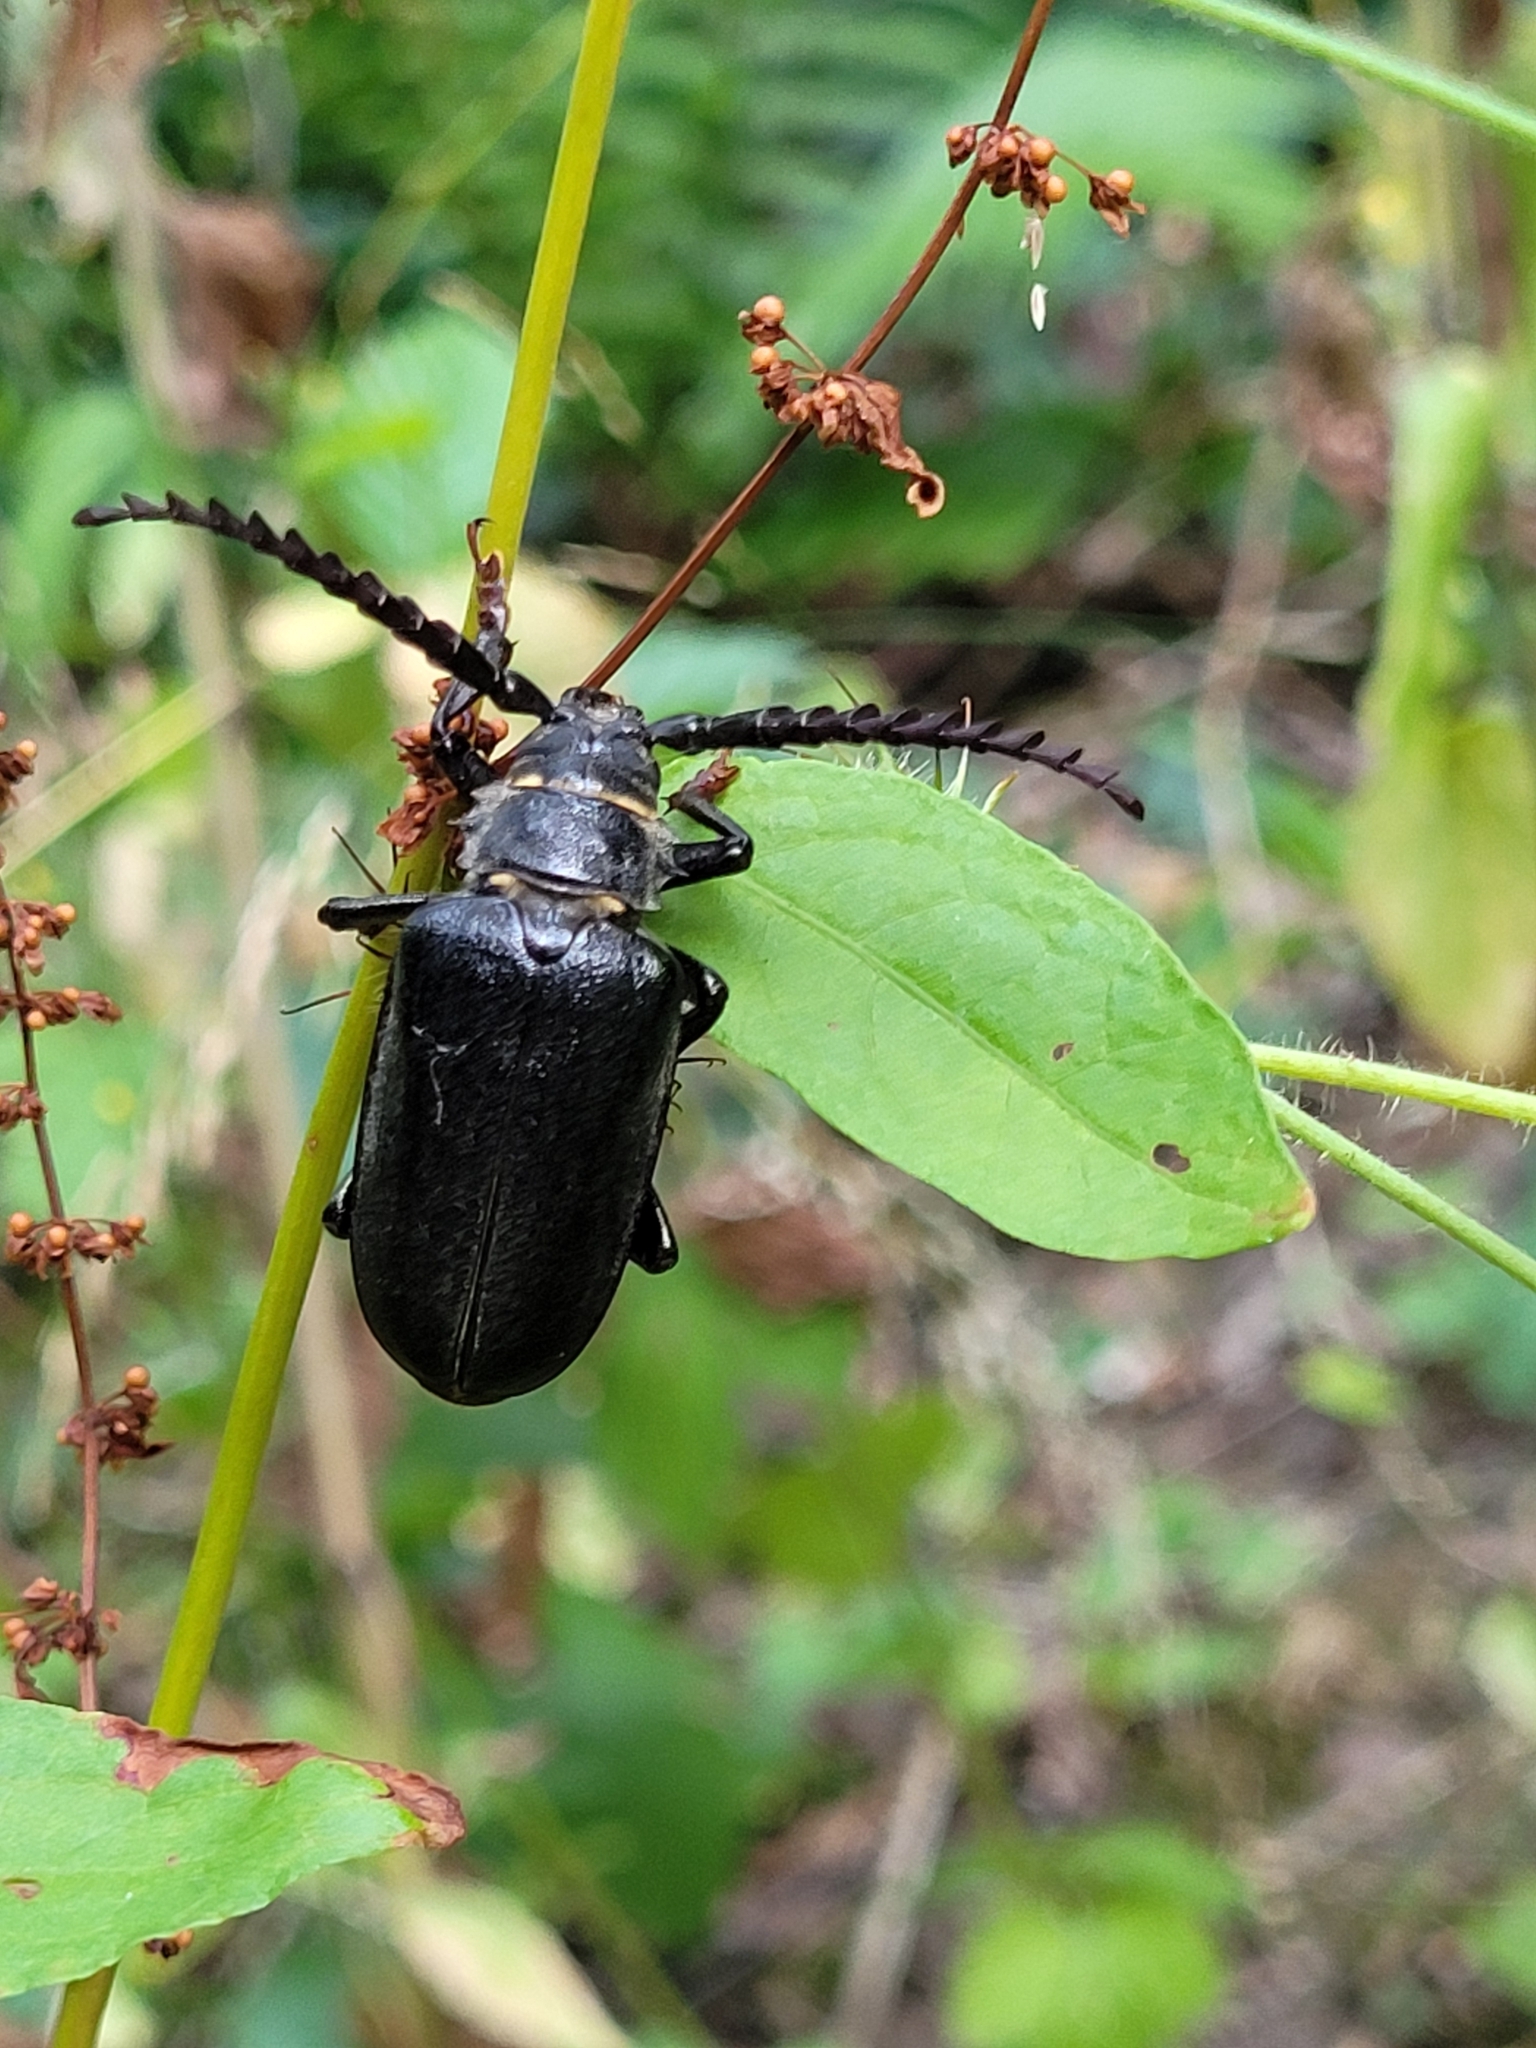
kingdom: Animalia
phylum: Arthropoda
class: Insecta
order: Coleoptera
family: Cerambycidae
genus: Prionus
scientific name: Prionus coriarius
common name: Tanner beetle
